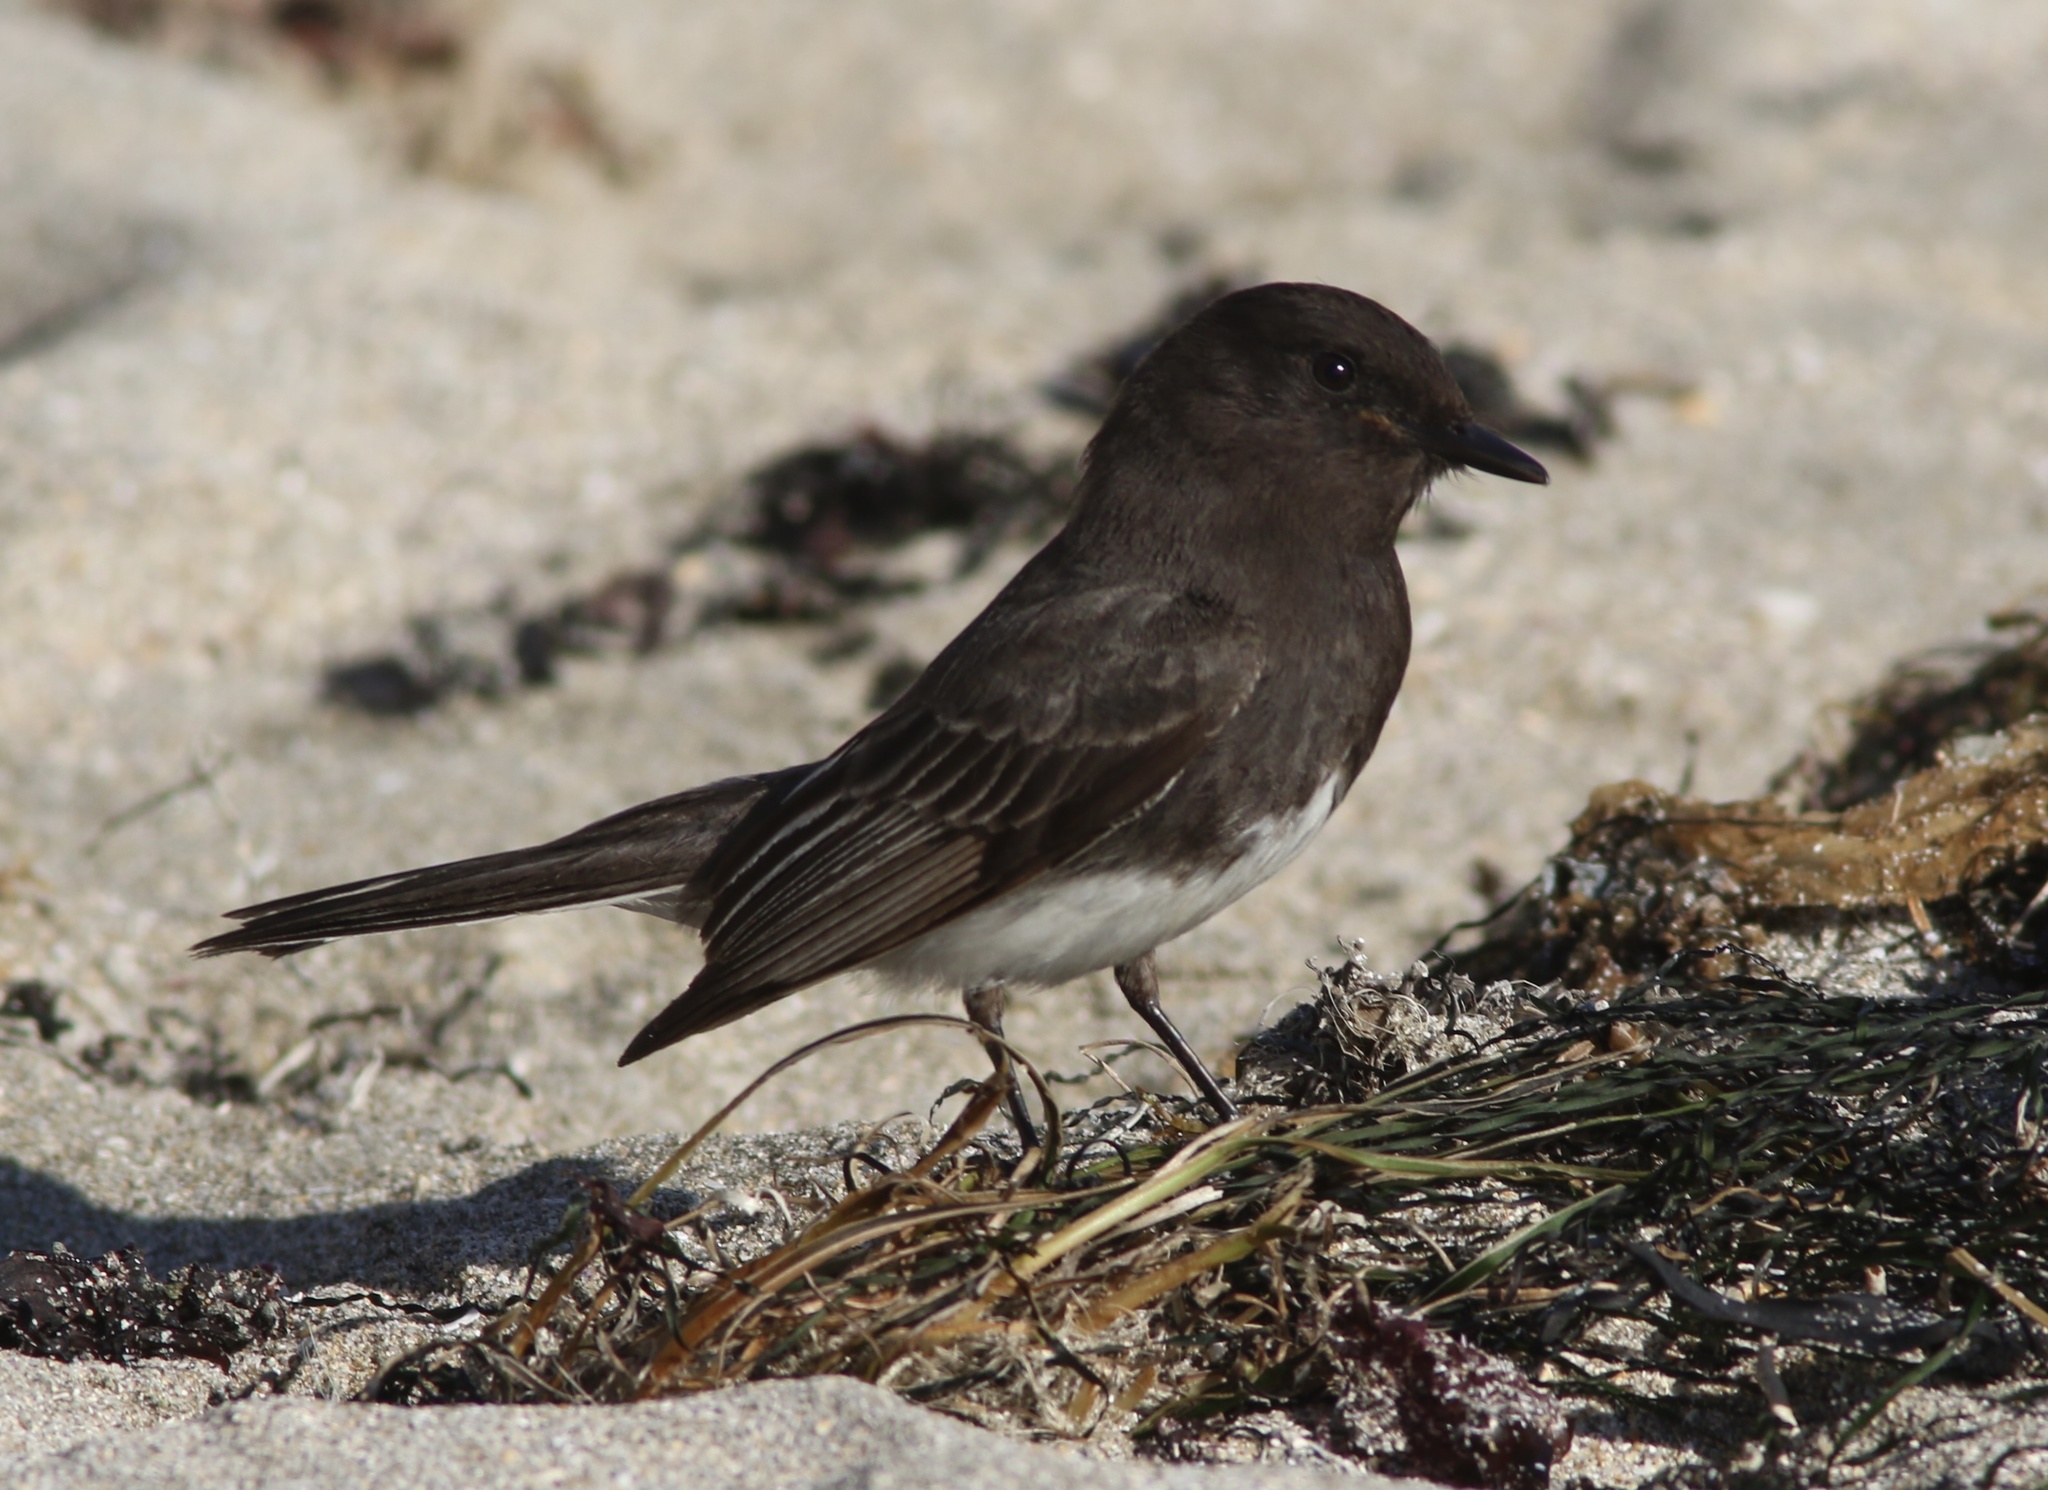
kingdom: Animalia
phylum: Chordata
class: Aves
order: Passeriformes
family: Tyrannidae
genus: Sayornis
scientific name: Sayornis nigricans
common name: Black phoebe
